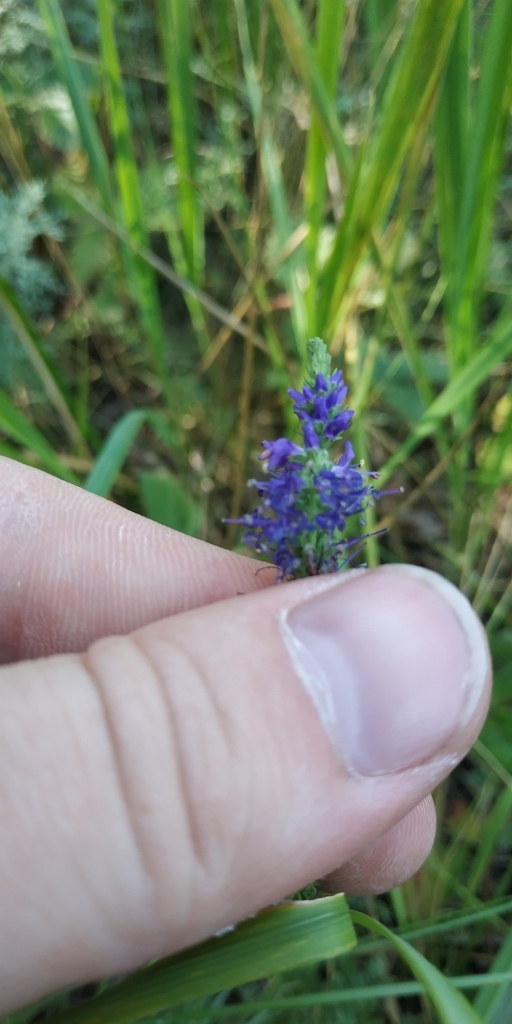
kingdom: Plantae
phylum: Tracheophyta
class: Magnoliopsida
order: Lamiales
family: Plantaginaceae
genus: Veronica
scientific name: Veronica spicata
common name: Spiked speedwell
